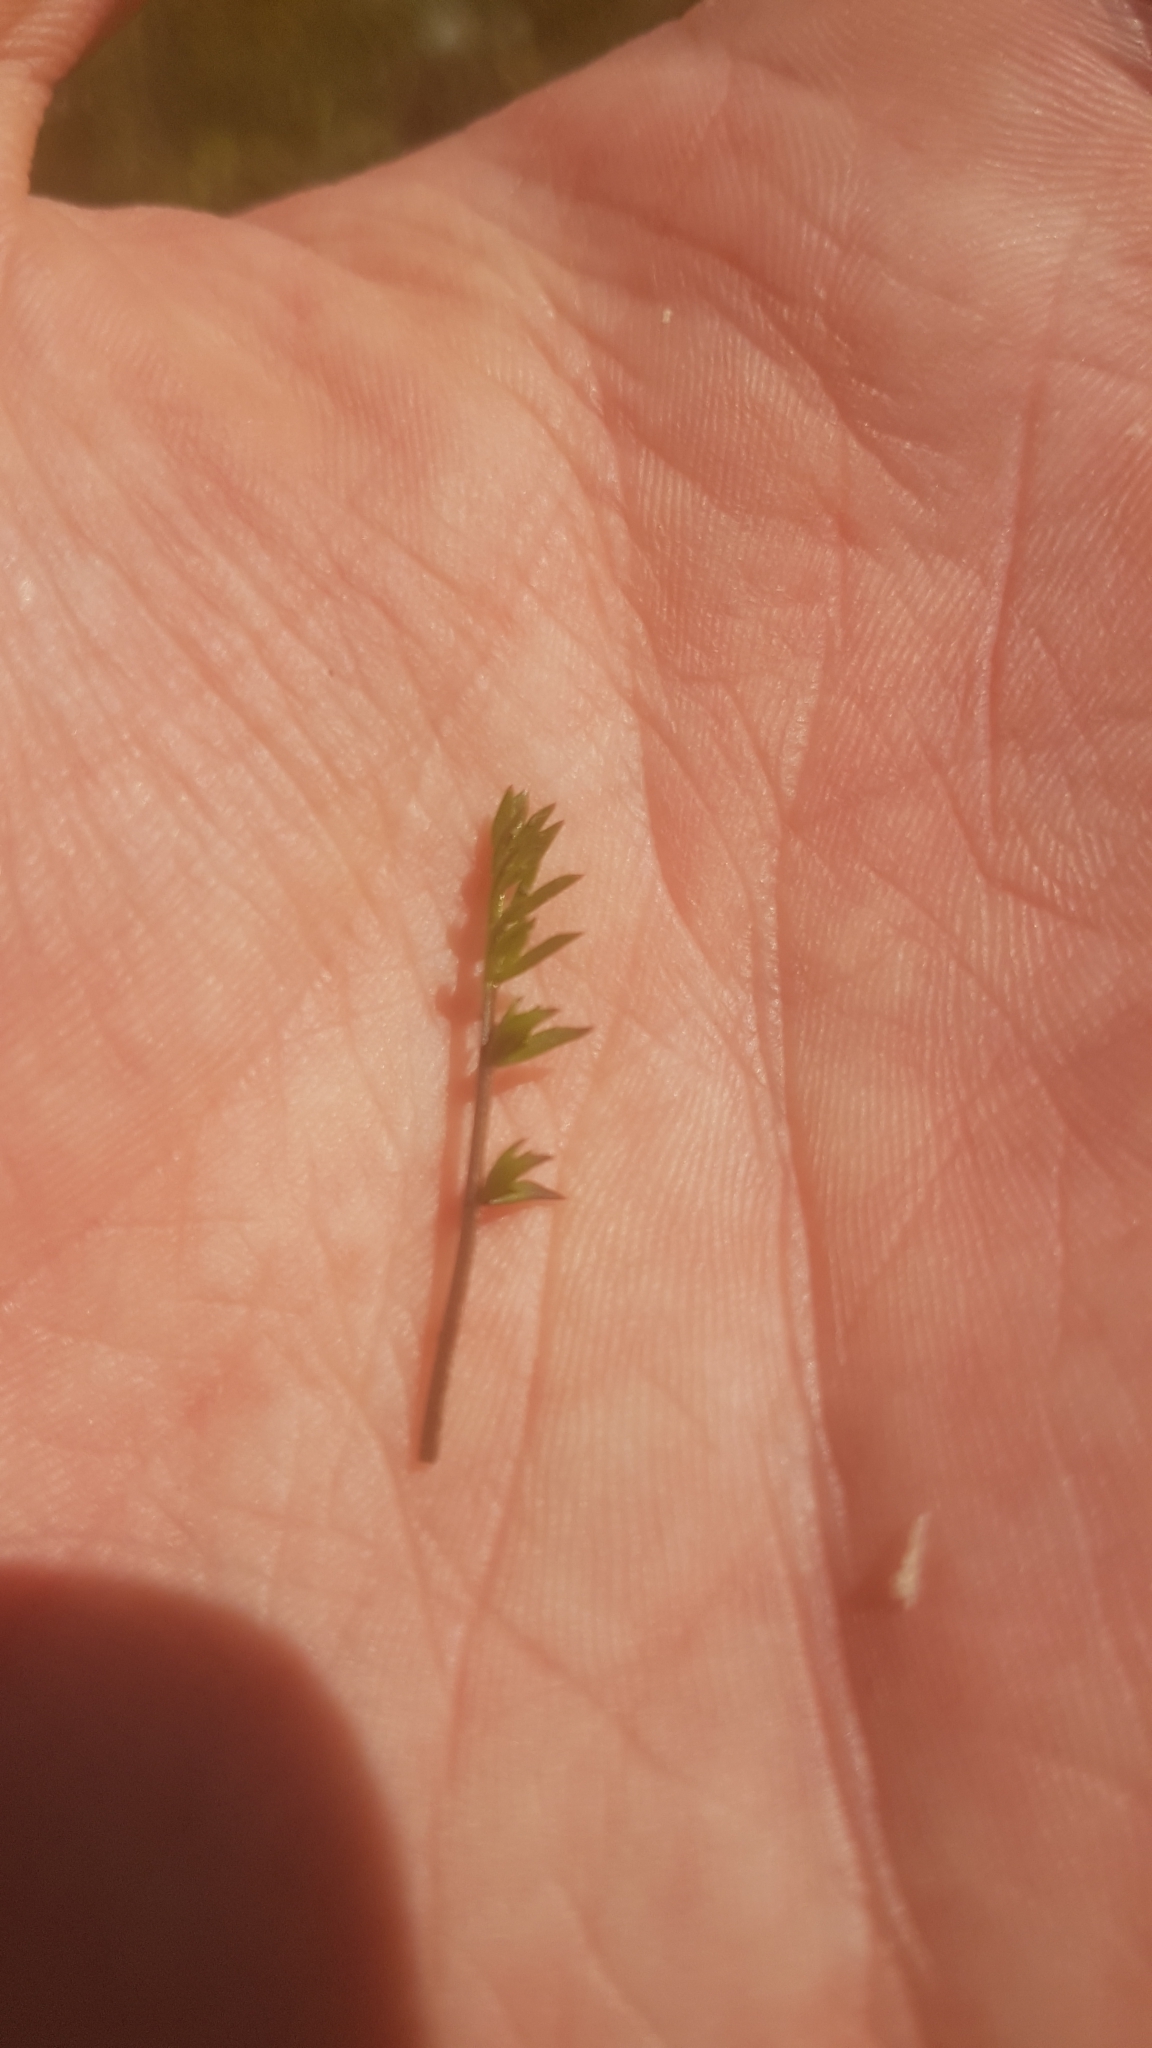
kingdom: Plantae
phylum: Tracheophyta
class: Magnoliopsida
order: Gentianales
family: Rubiaceae
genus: Coprosma
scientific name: Coprosma atropurpurea
